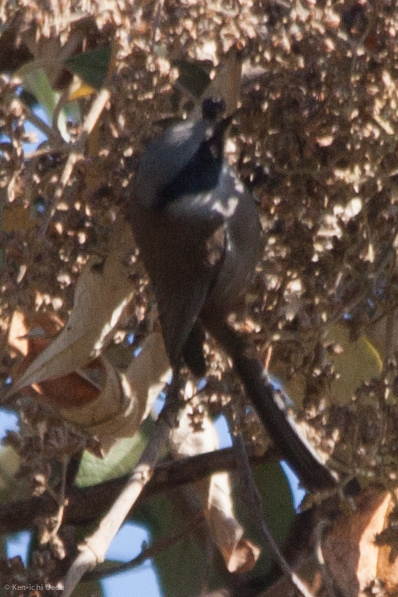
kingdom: Animalia
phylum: Chordata
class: Aves
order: Passeriformes
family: Aegithalidae
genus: Psaltriparus
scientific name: Psaltriparus minimus
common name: American bushtit
